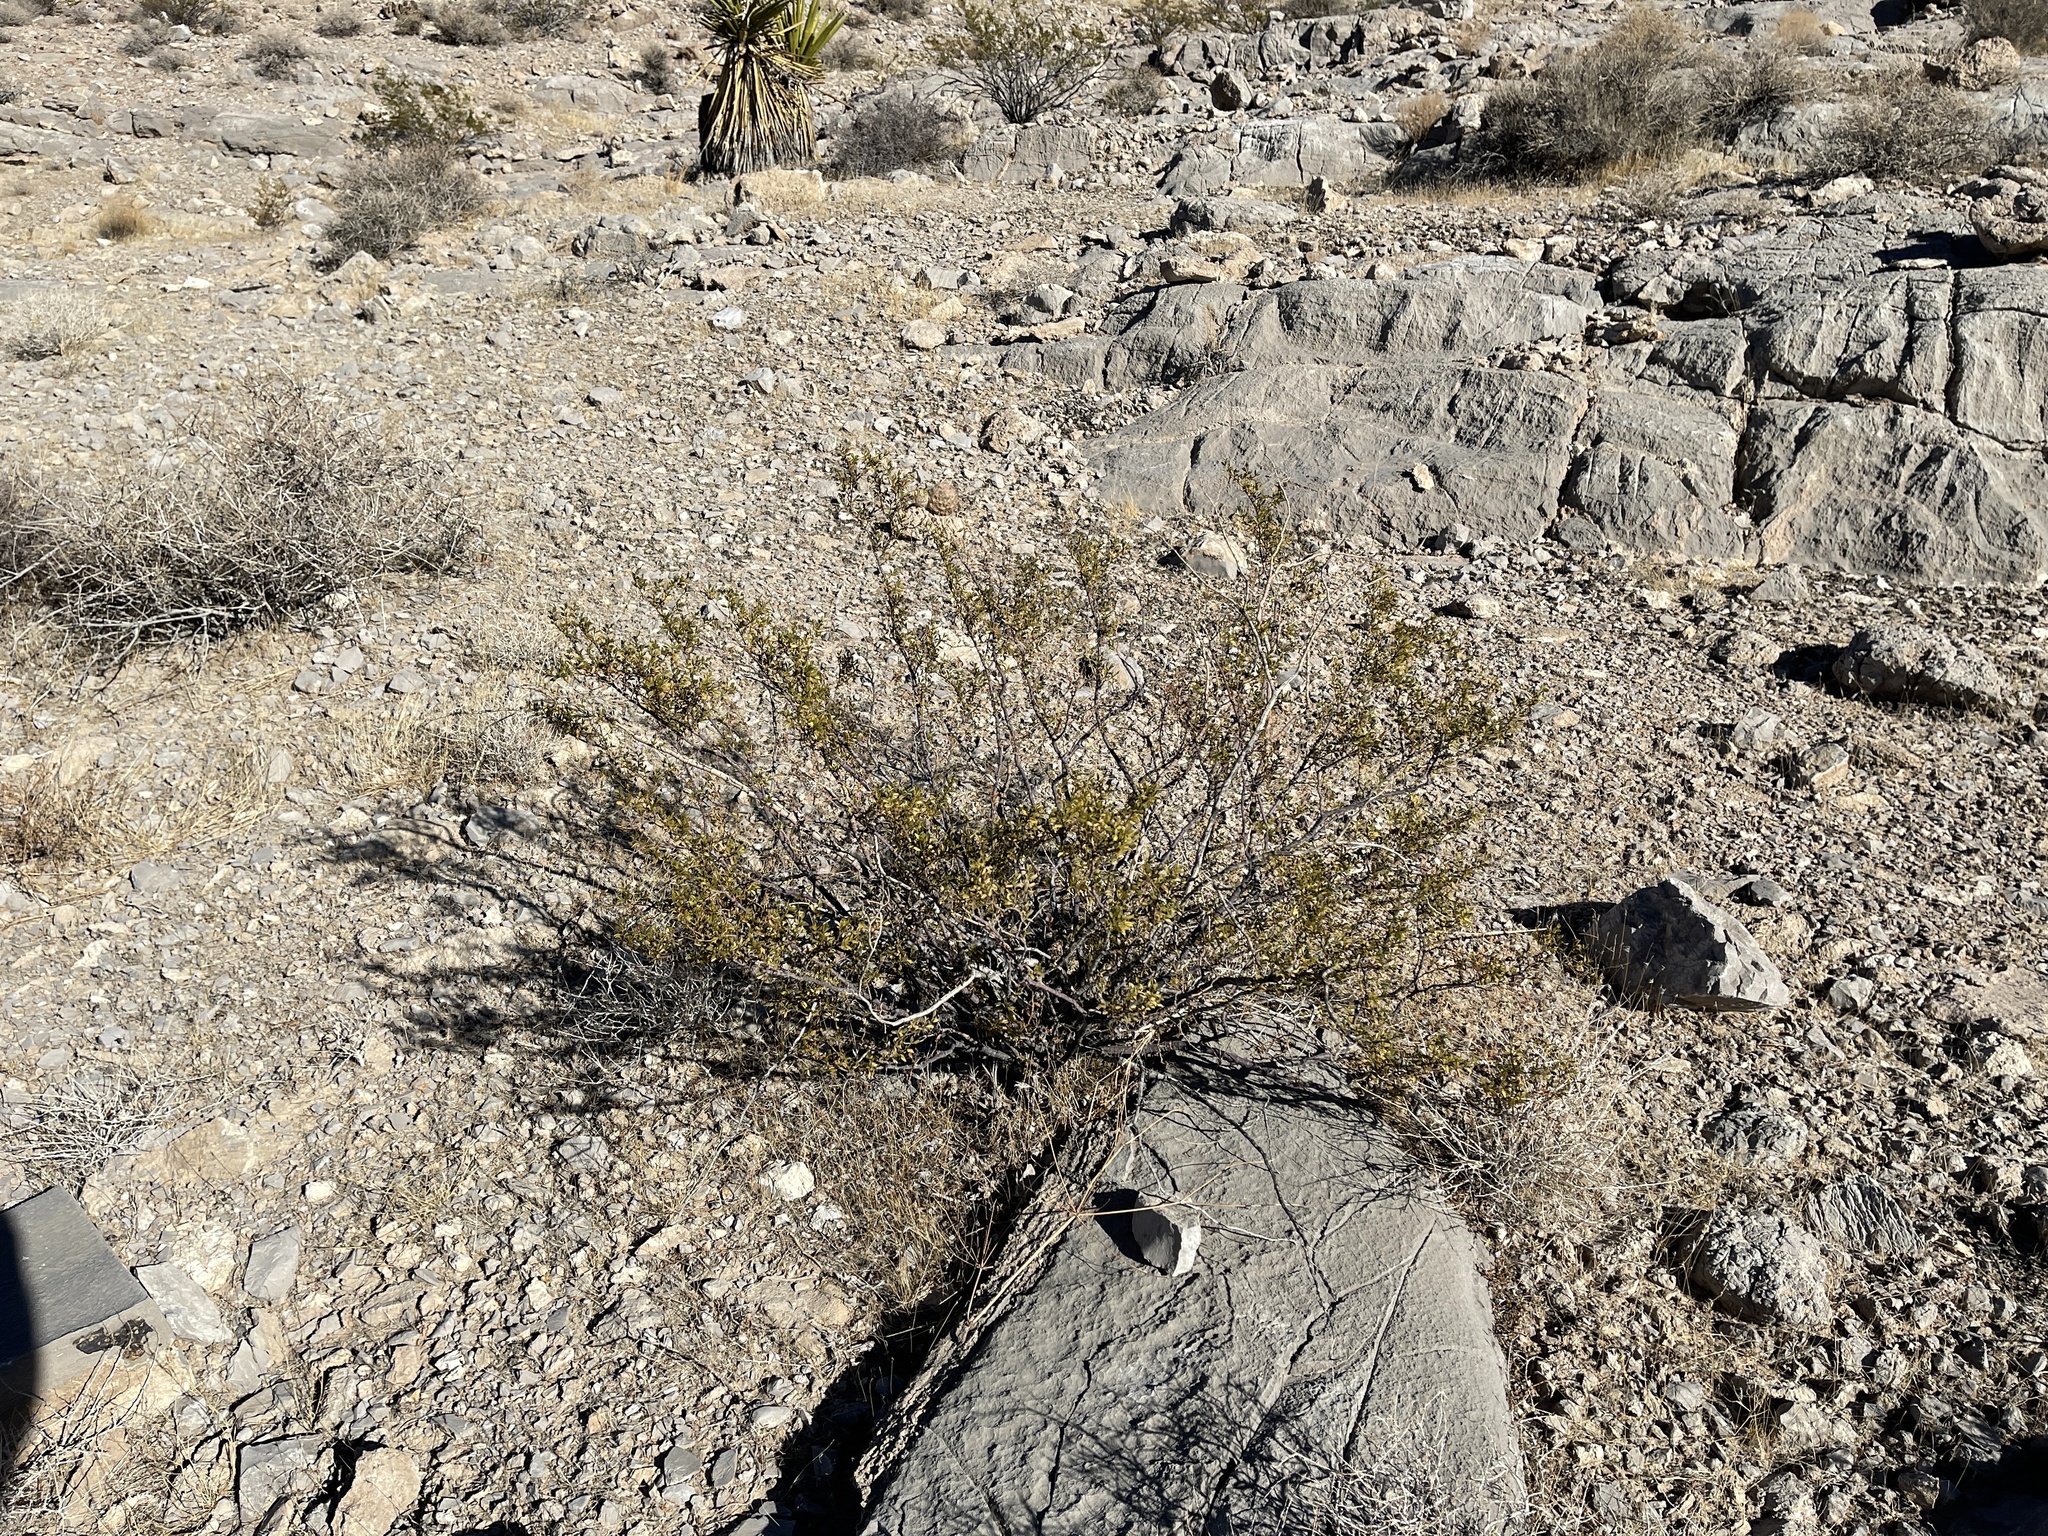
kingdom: Plantae
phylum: Tracheophyta
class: Magnoliopsida
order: Zygophyllales
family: Zygophyllaceae
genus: Larrea
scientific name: Larrea tridentata
